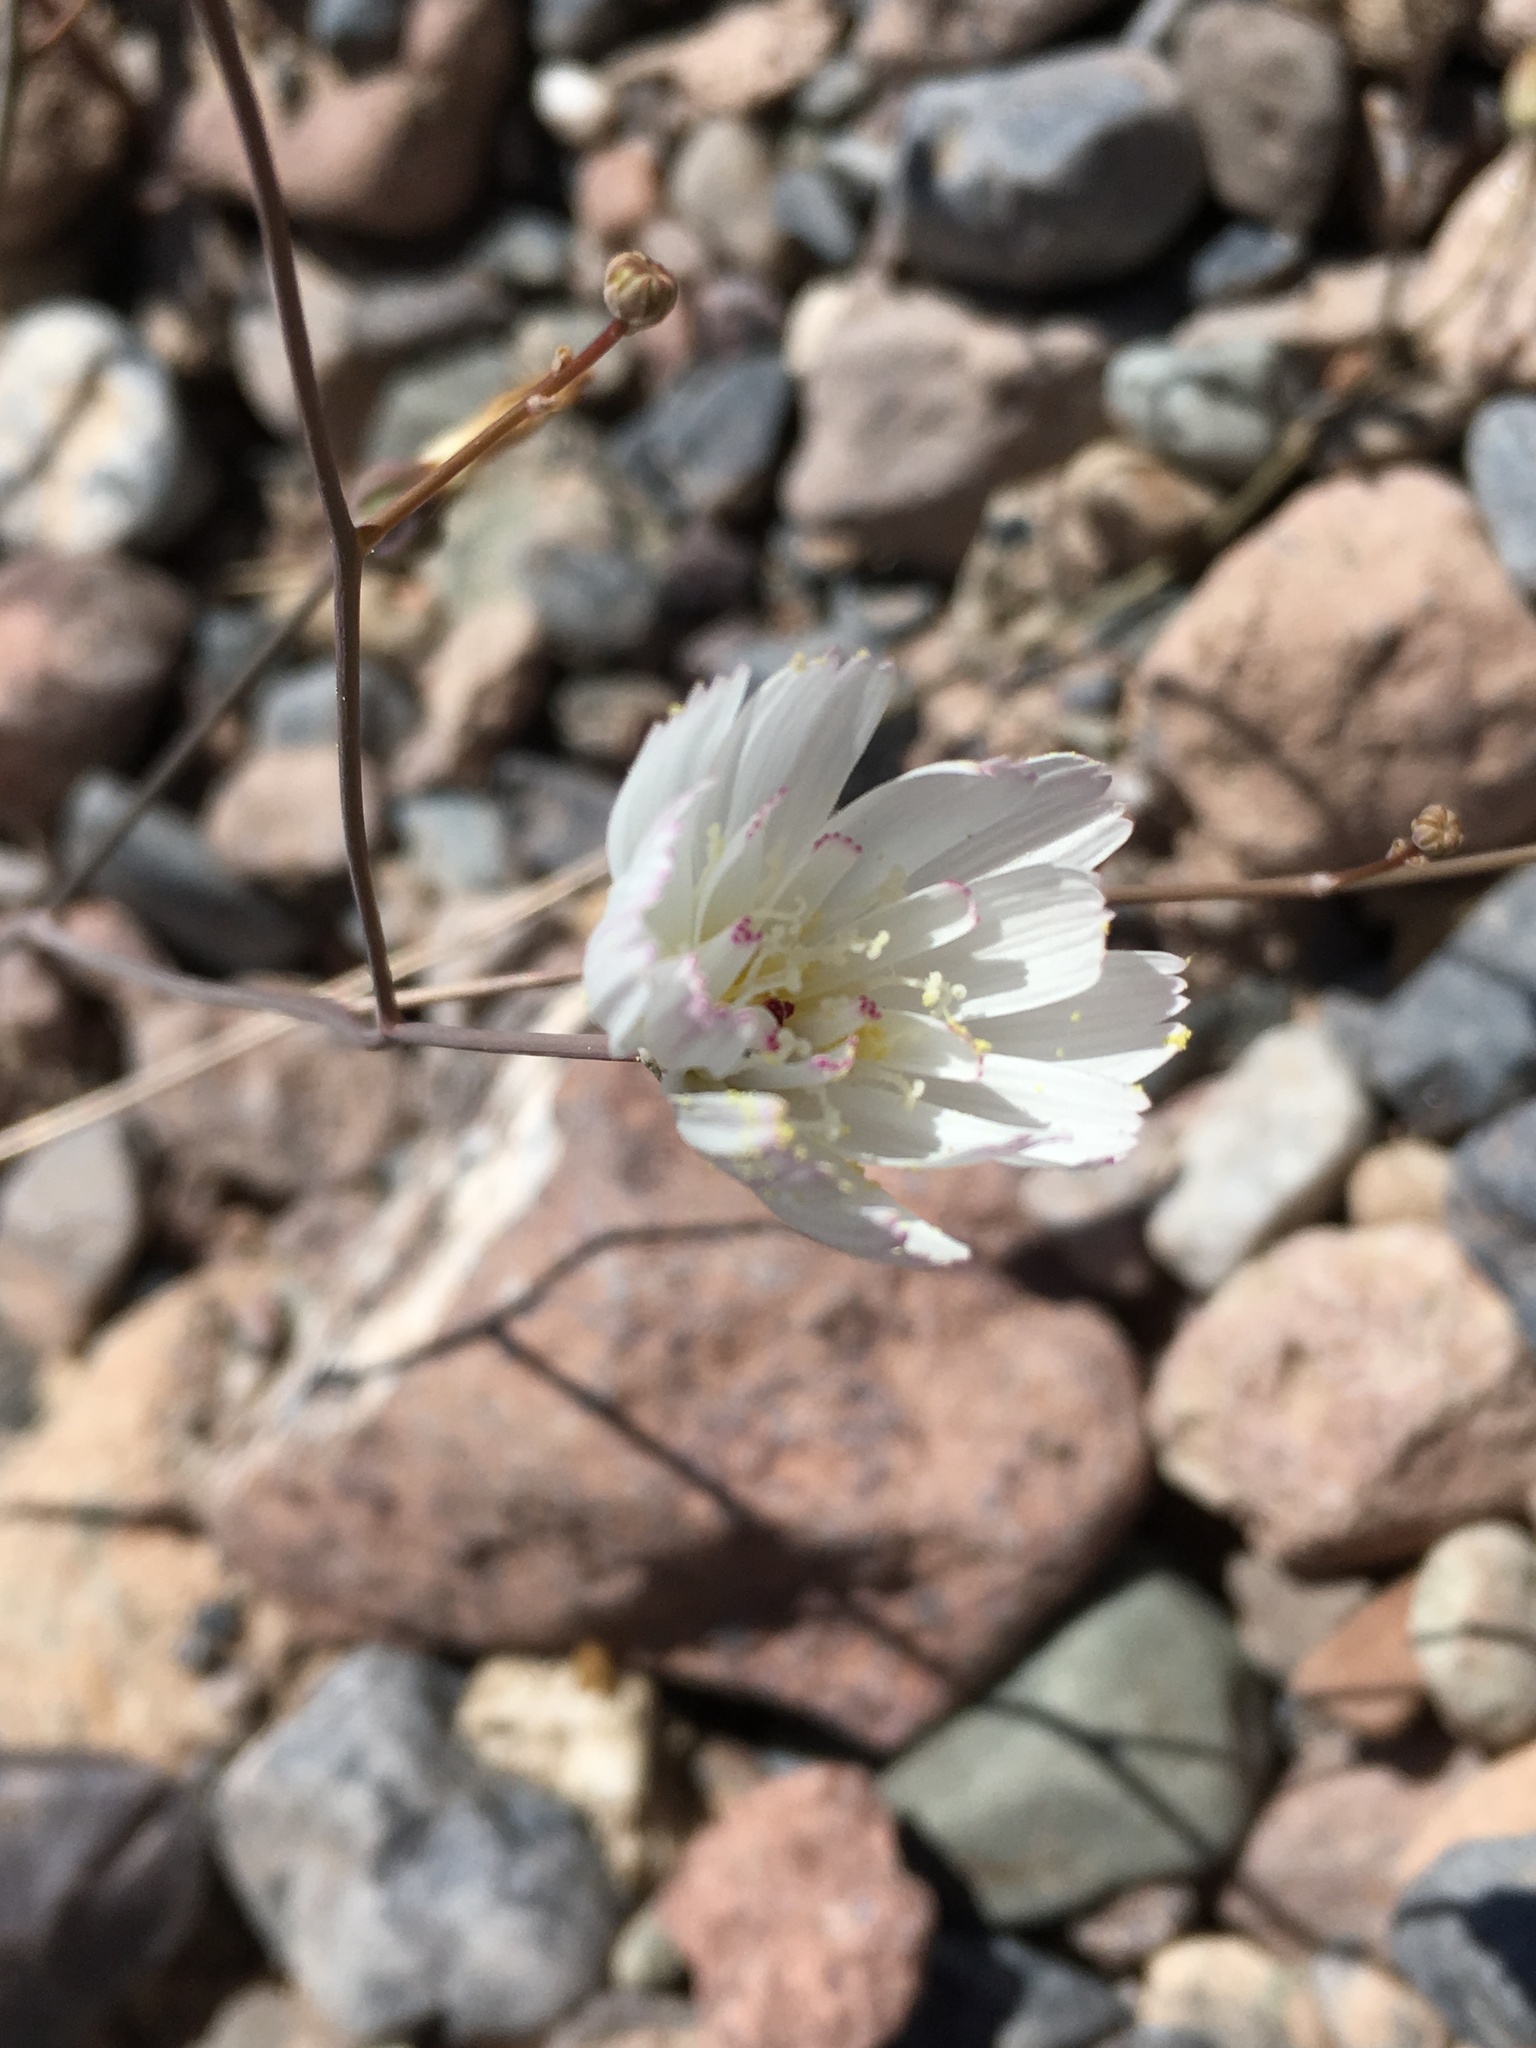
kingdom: Plantae
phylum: Tracheophyta
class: Magnoliopsida
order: Asterales
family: Asteraceae
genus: Atrichoseris
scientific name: Atrichoseris platyphylla
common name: Tobaccoweed
